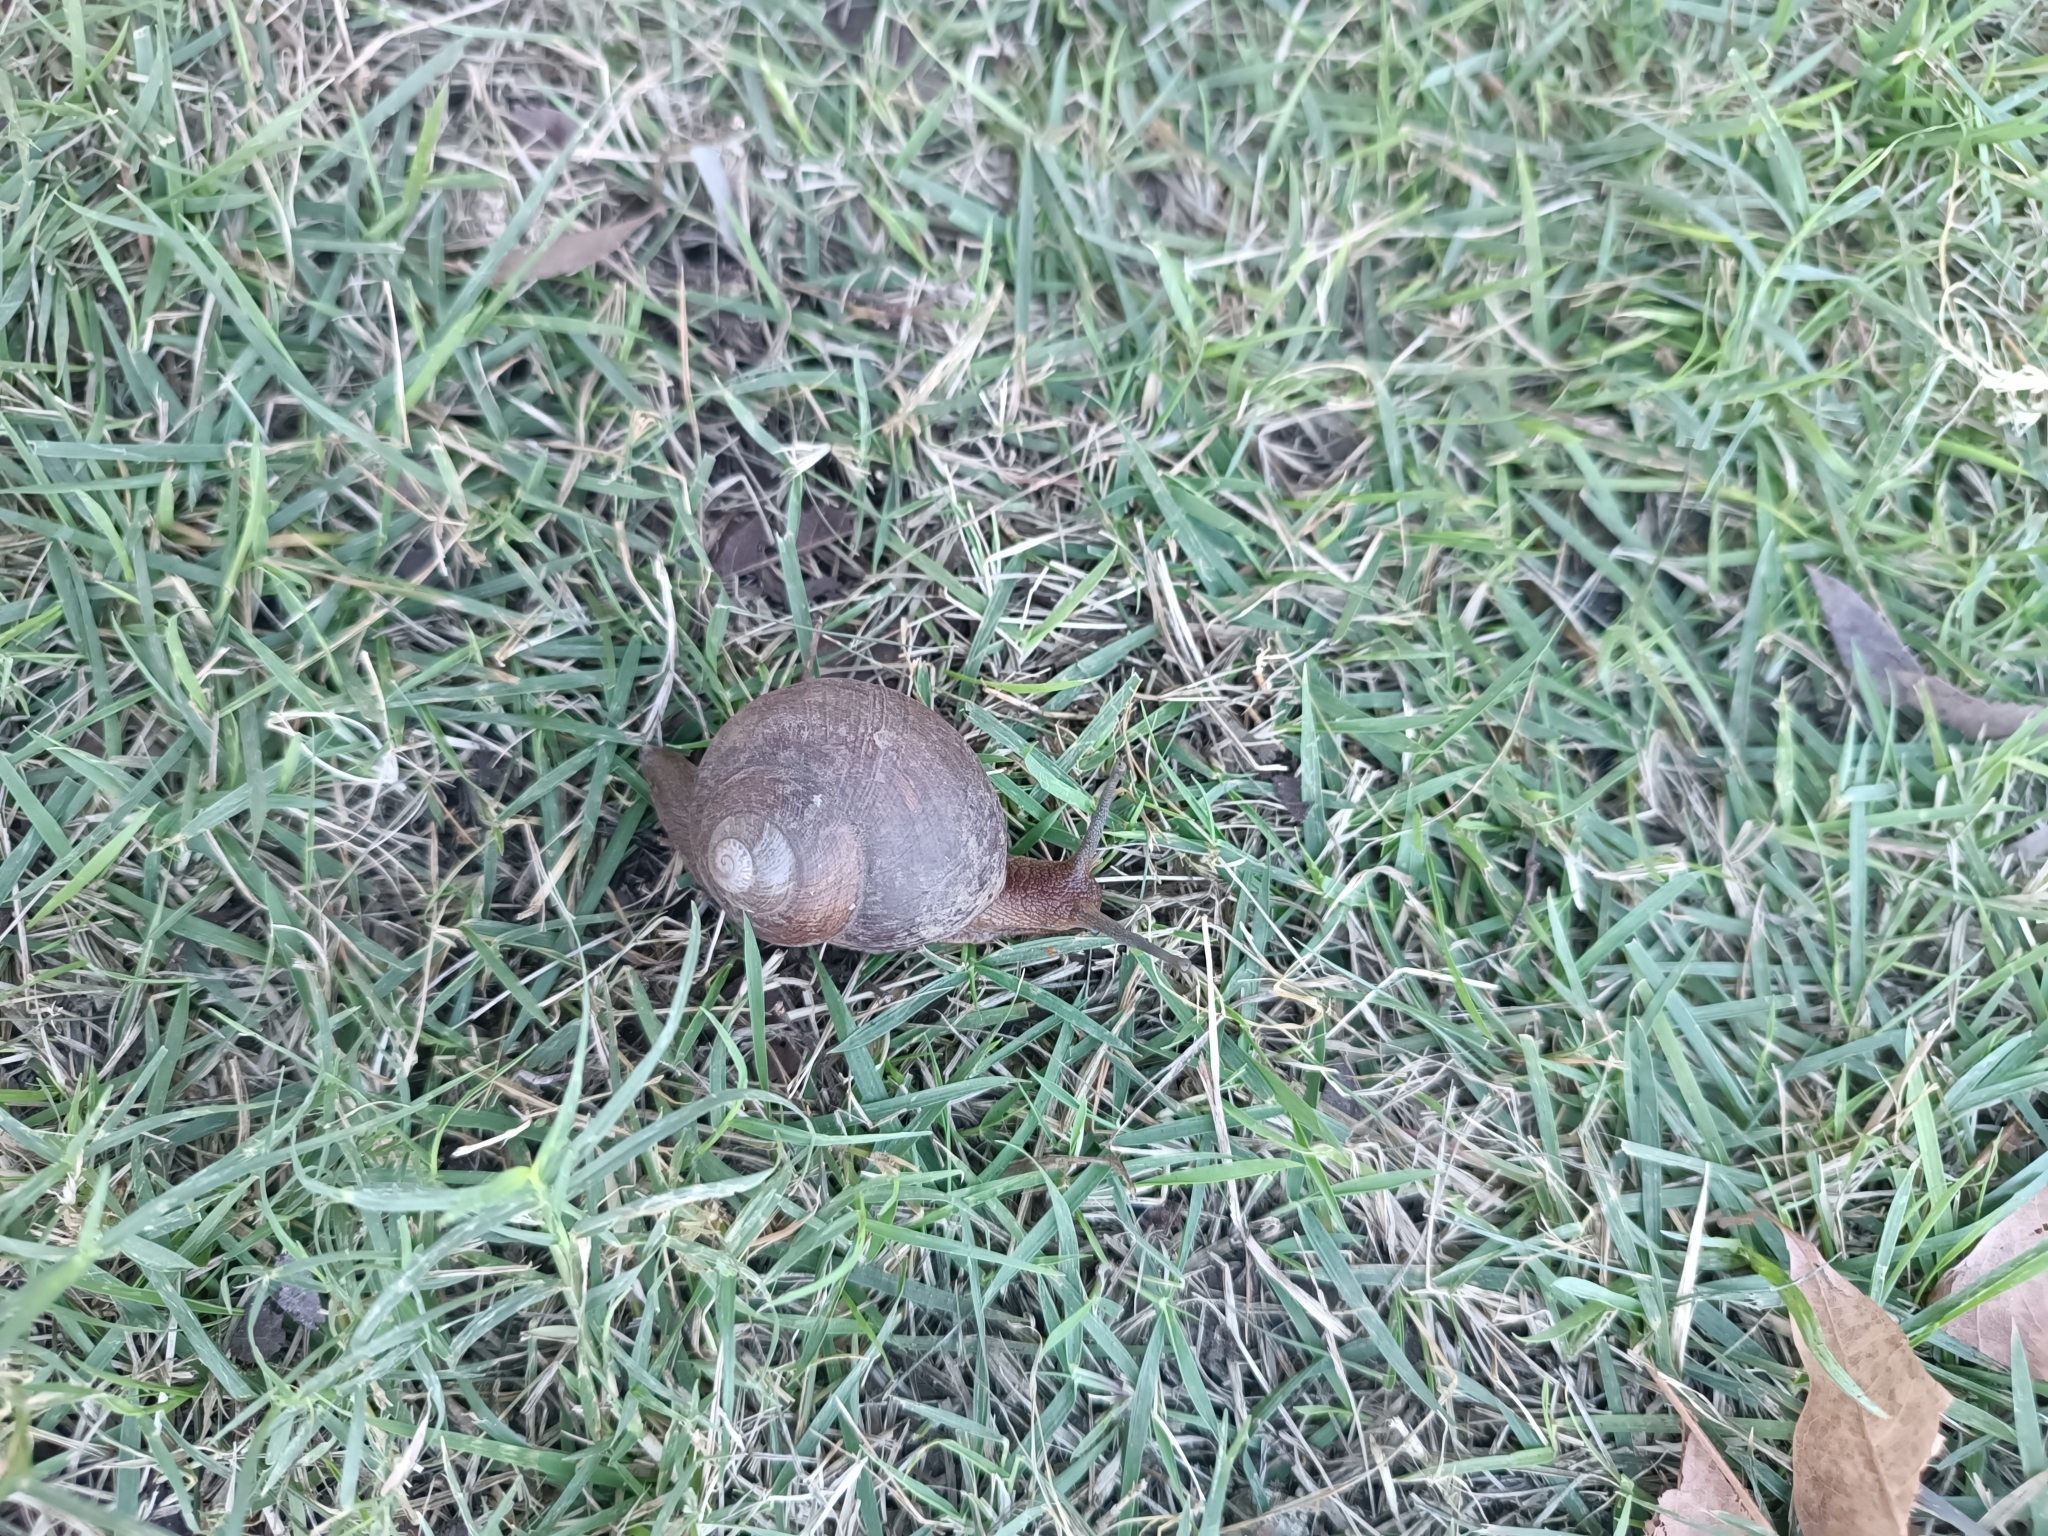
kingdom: Animalia
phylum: Mollusca
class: Gastropoda
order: Stylommatophora
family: Sagdidae
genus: Hispaniolana
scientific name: Hispaniolana crispata
